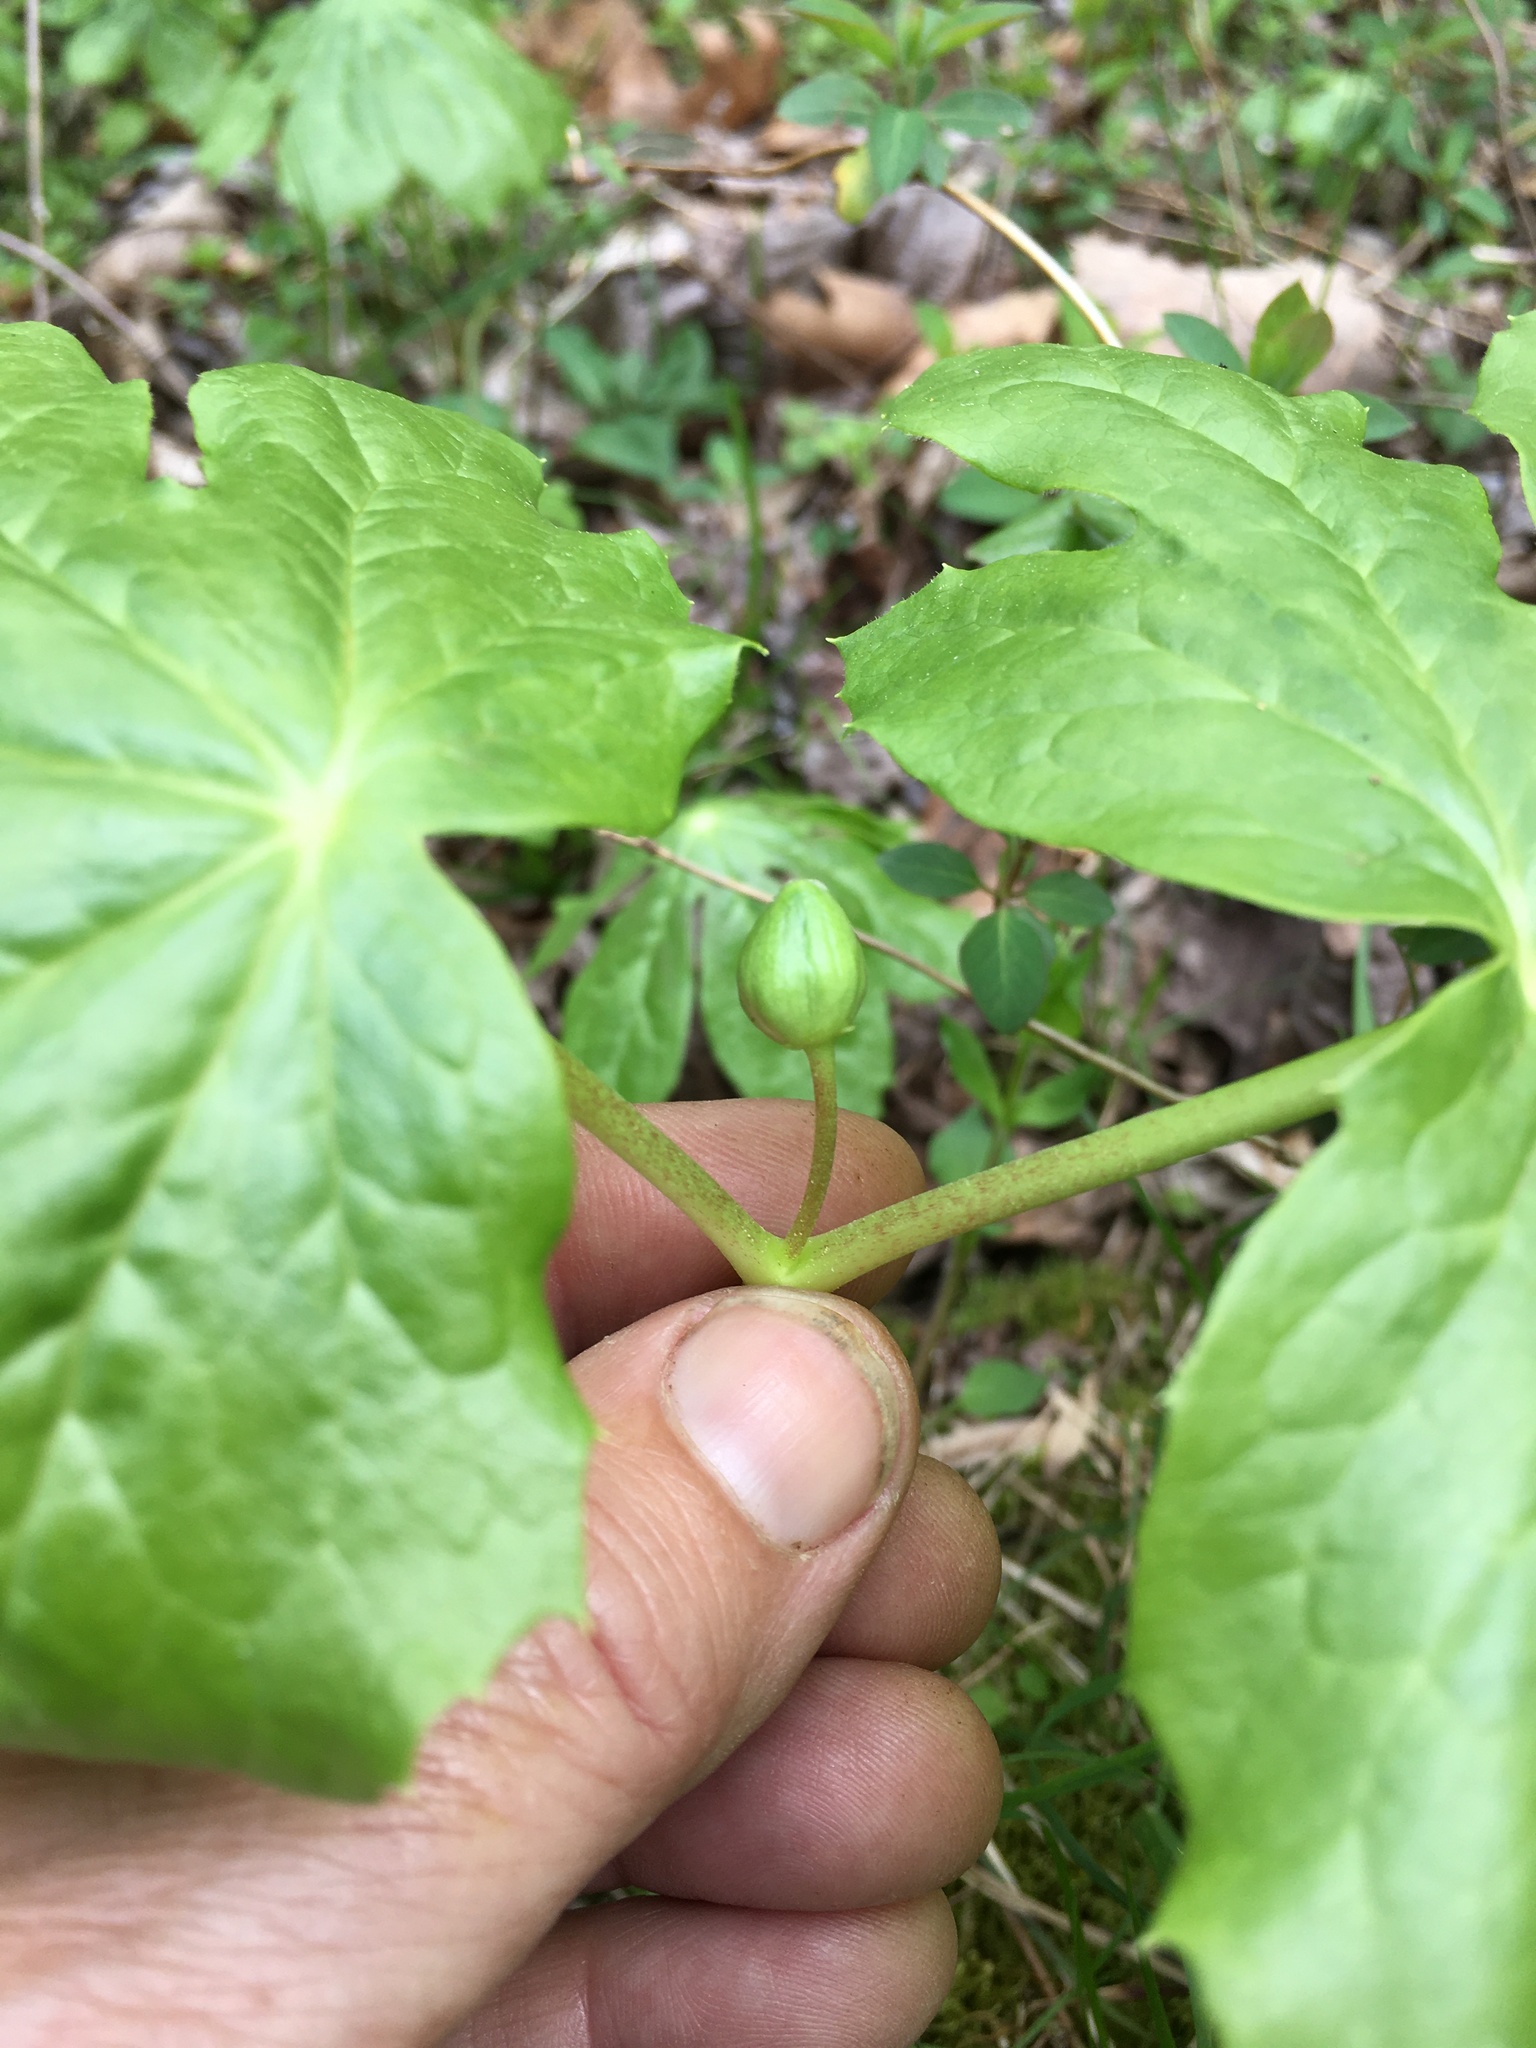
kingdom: Plantae
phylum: Tracheophyta
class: Magnoliopsida
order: Ranunculales
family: Berberidaceae
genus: Podophyllum
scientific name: Podophyllum peltatum
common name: Wild mandrake
